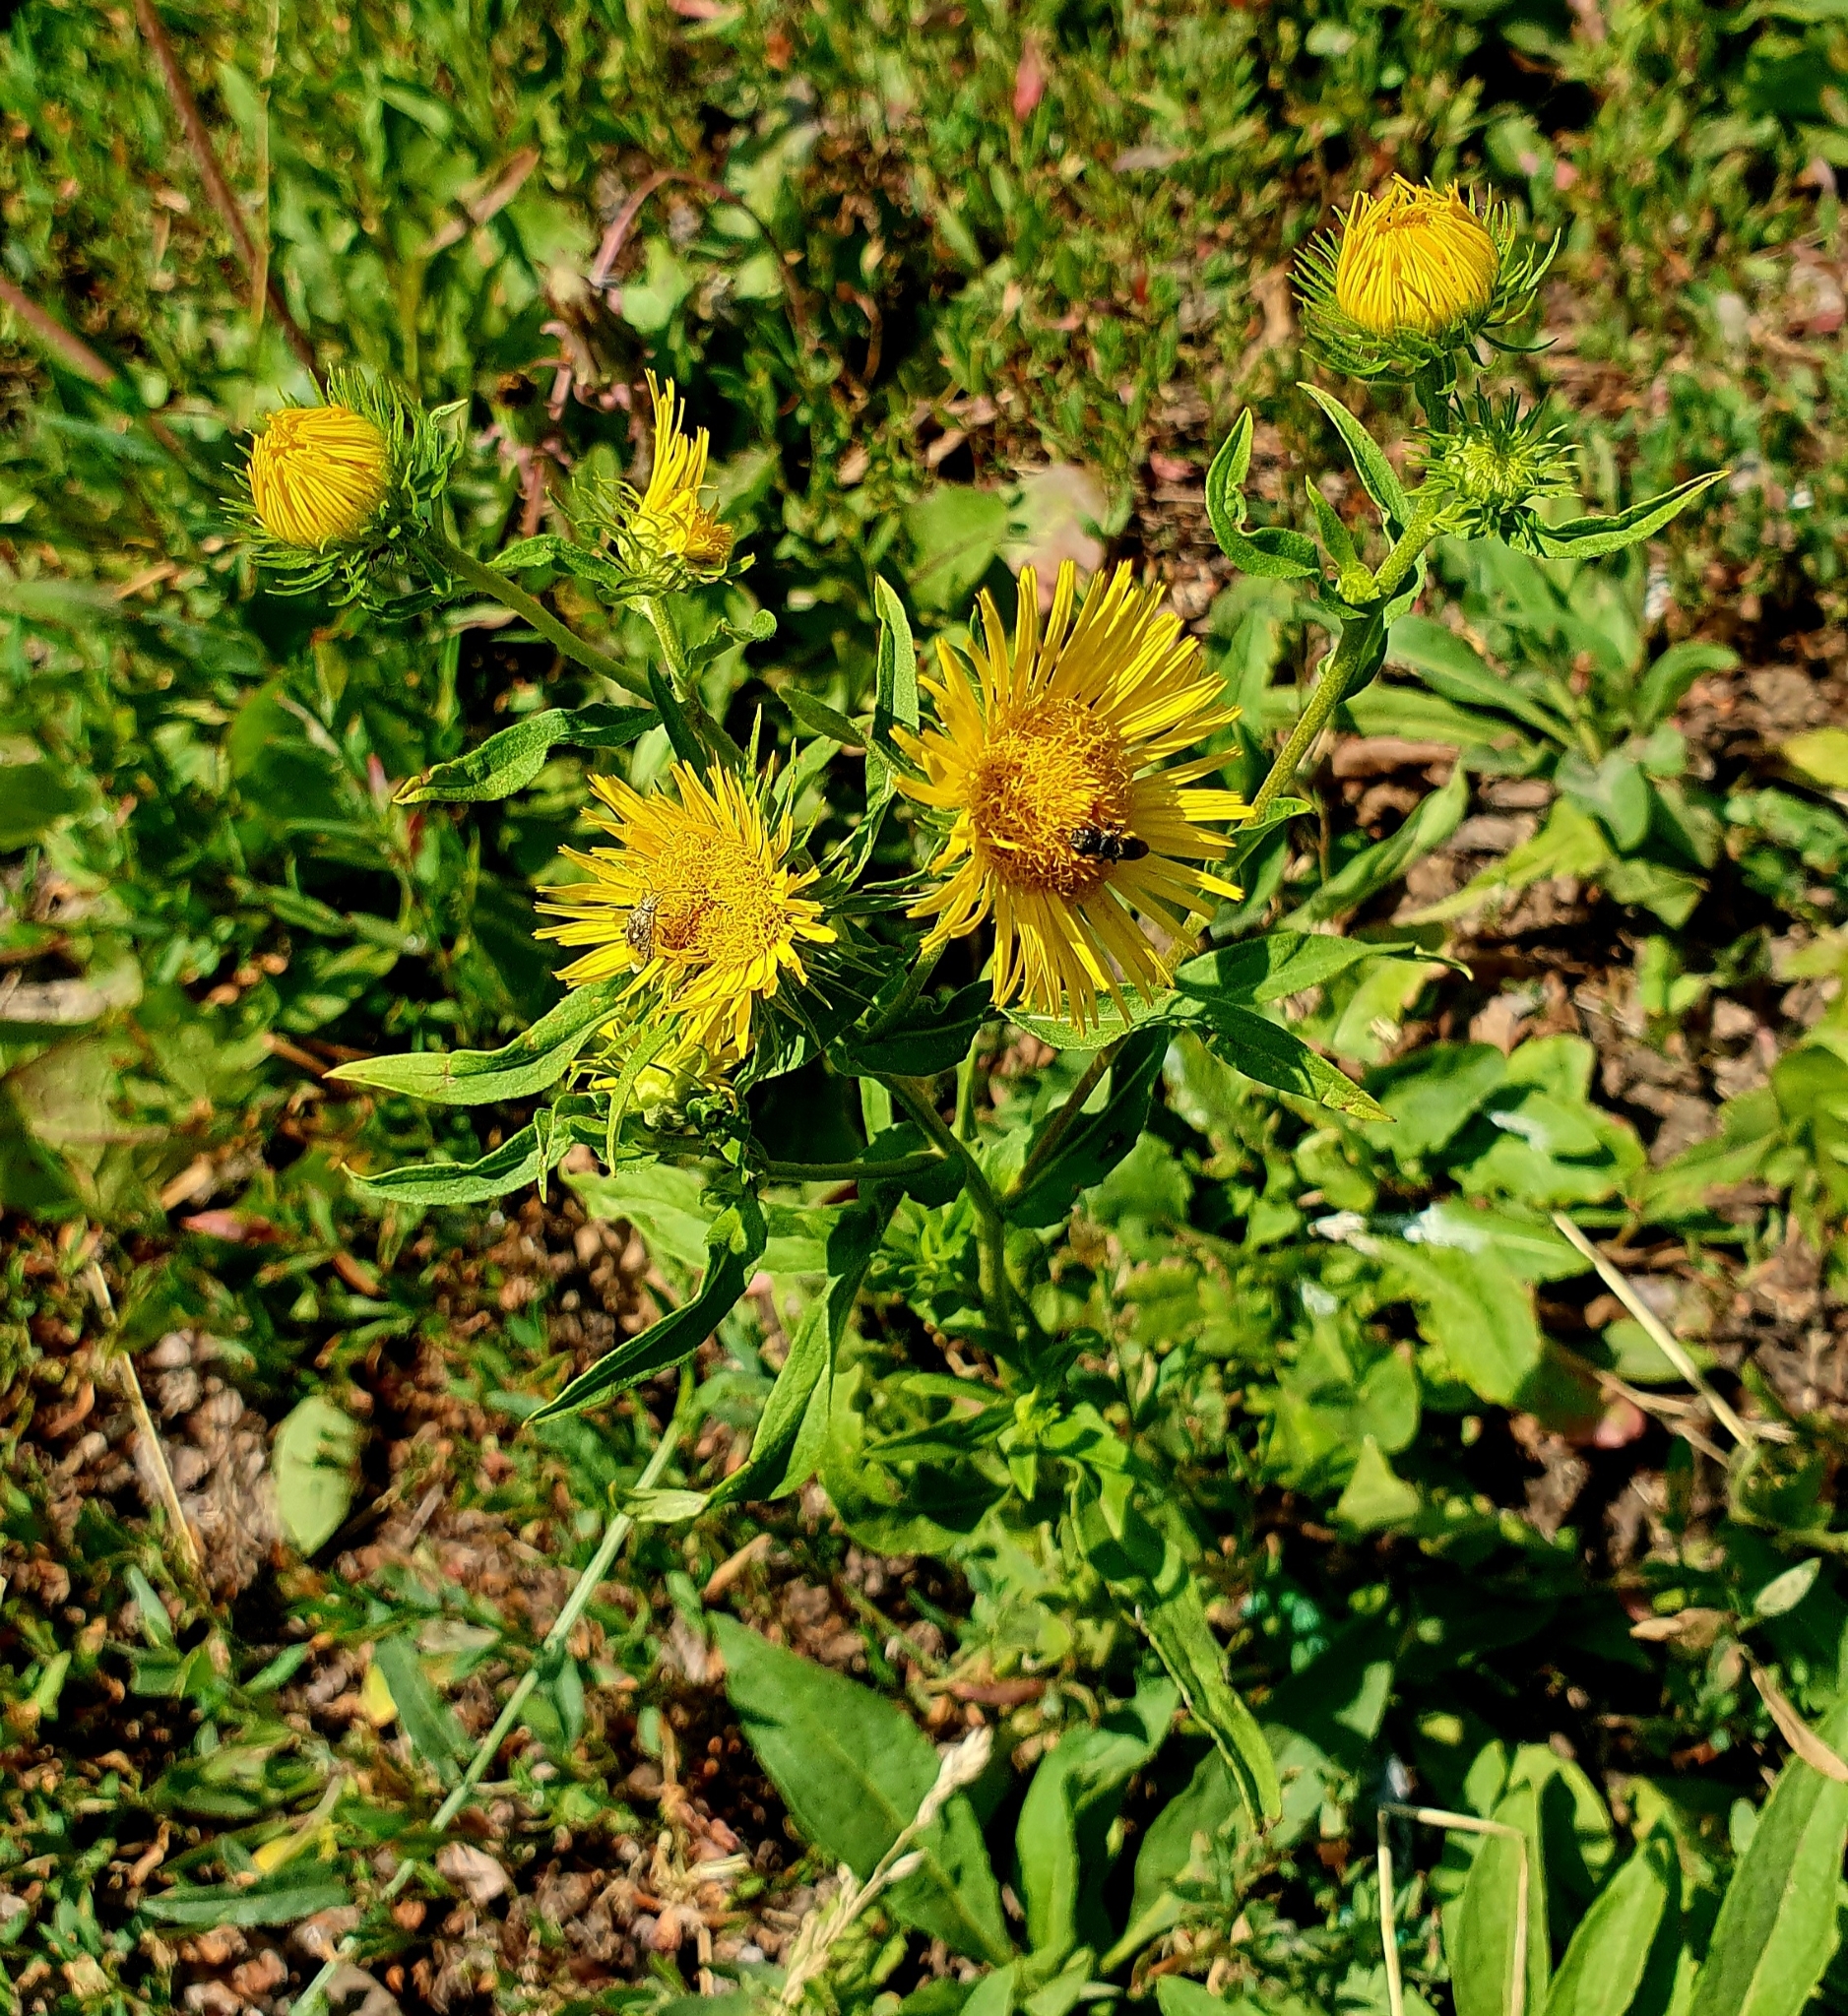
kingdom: Plantae
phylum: Tracheophyta
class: Magnoliopsida
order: Asterales
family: Asteraceae
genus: Pentanema
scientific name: Pentanema britannicum
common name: British elecampane
